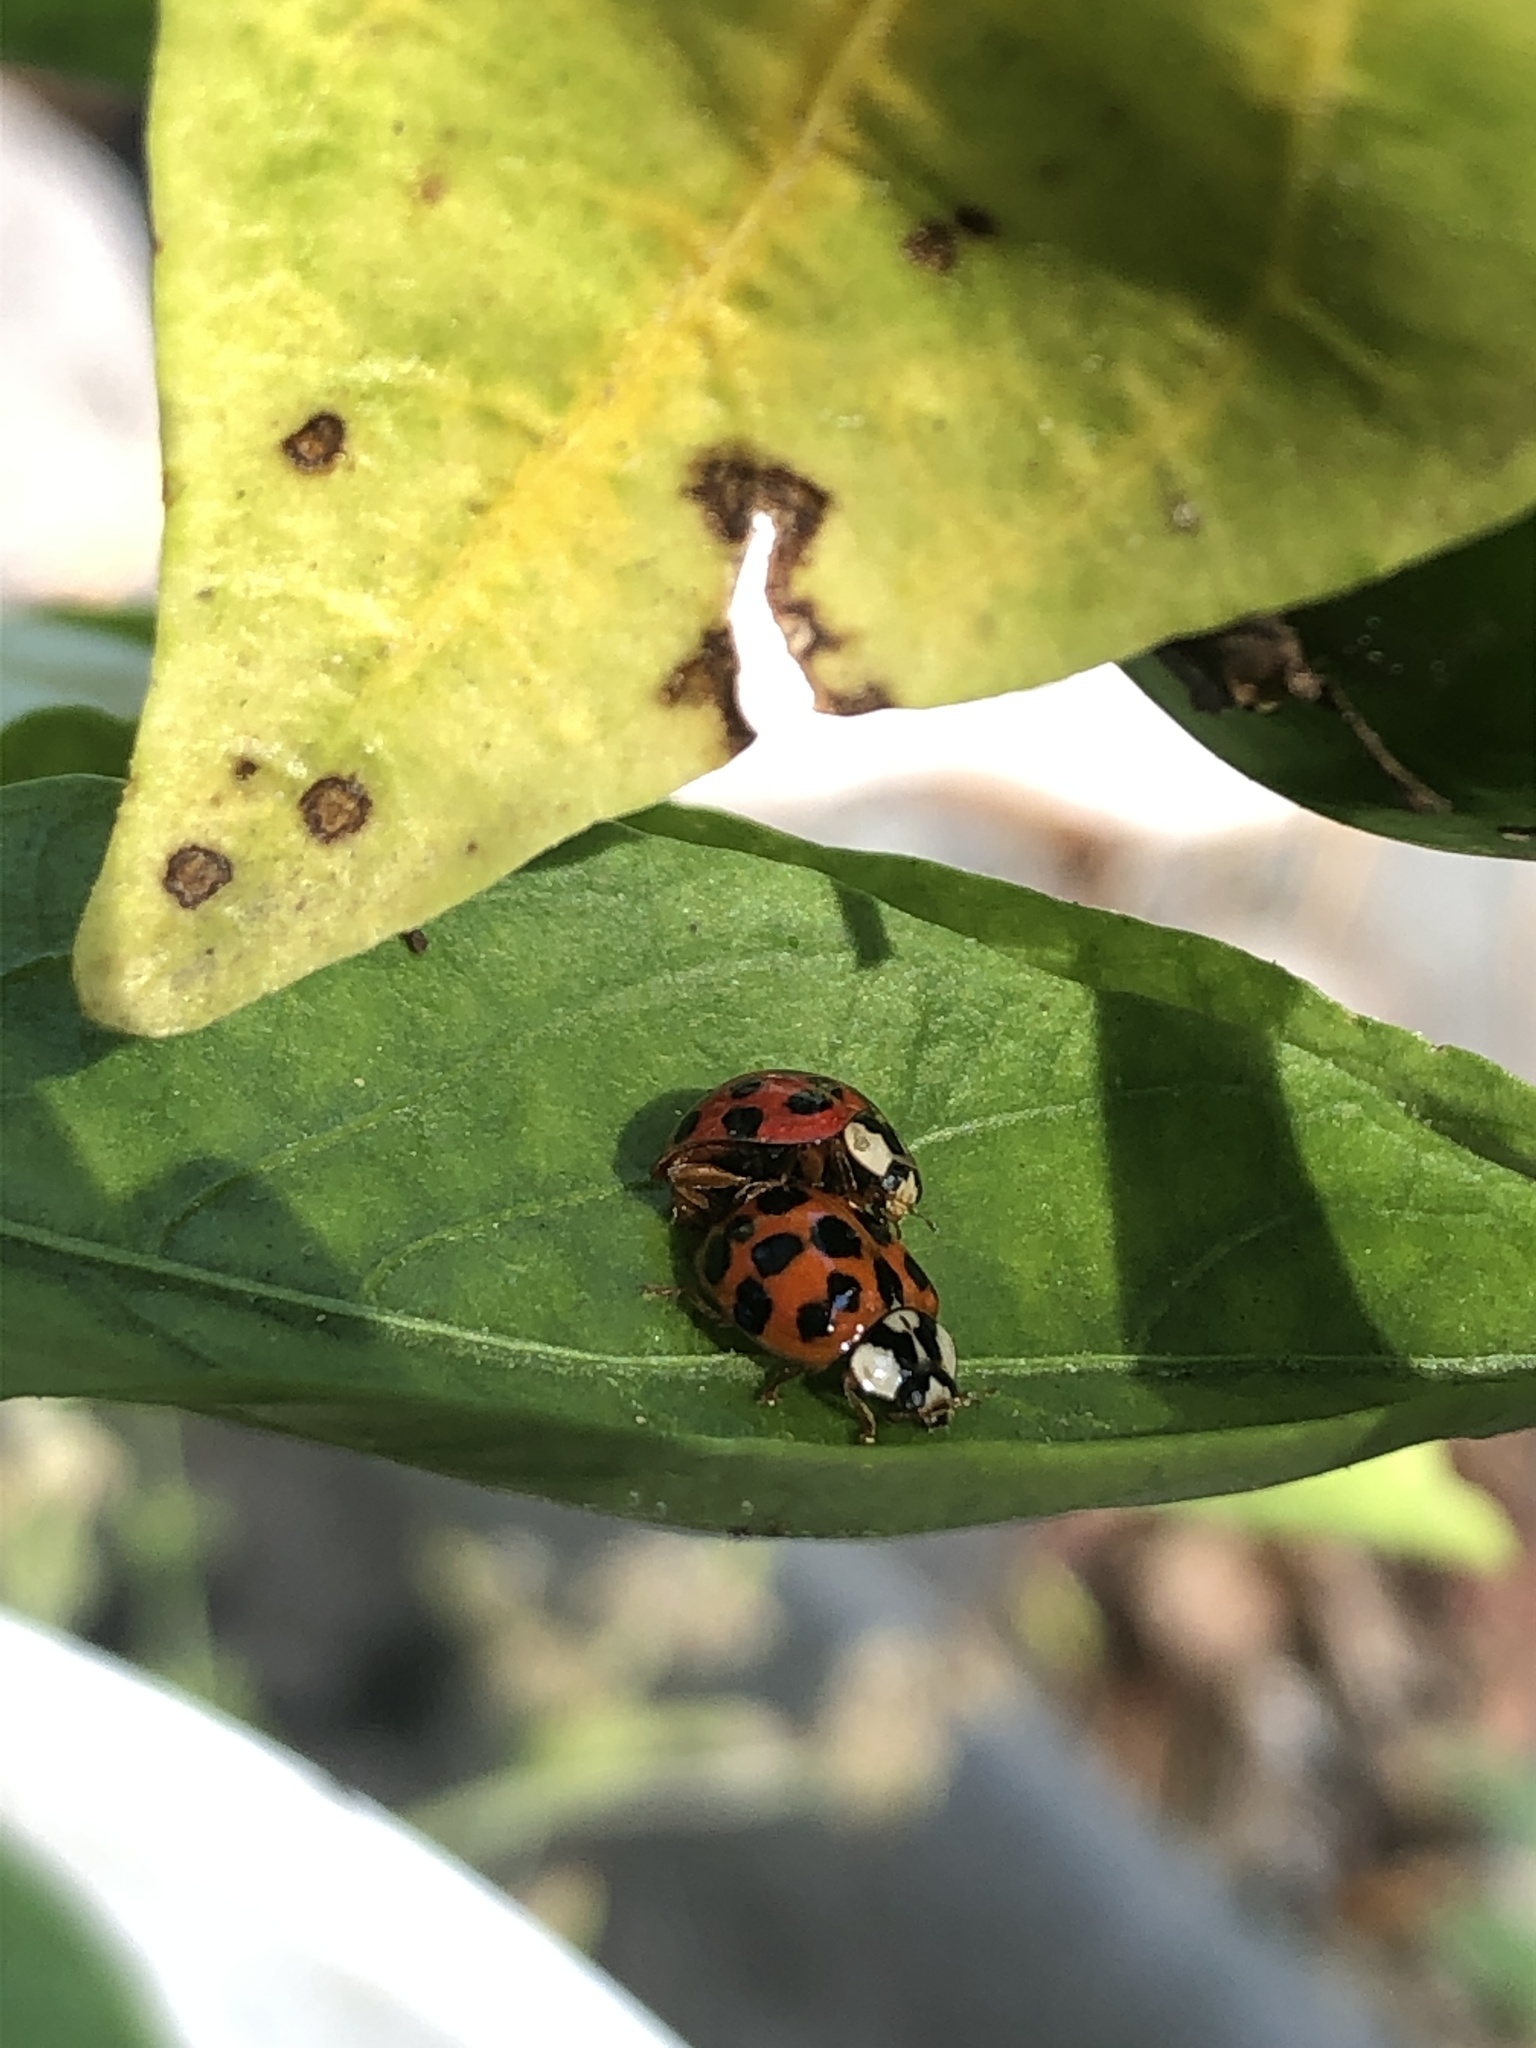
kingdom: Animalia
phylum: Arthropoda
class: Insecta
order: Coleoptera
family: Coccinellidae
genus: Harmonia
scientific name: Harmonia axyridis
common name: Harlequin ladybird
